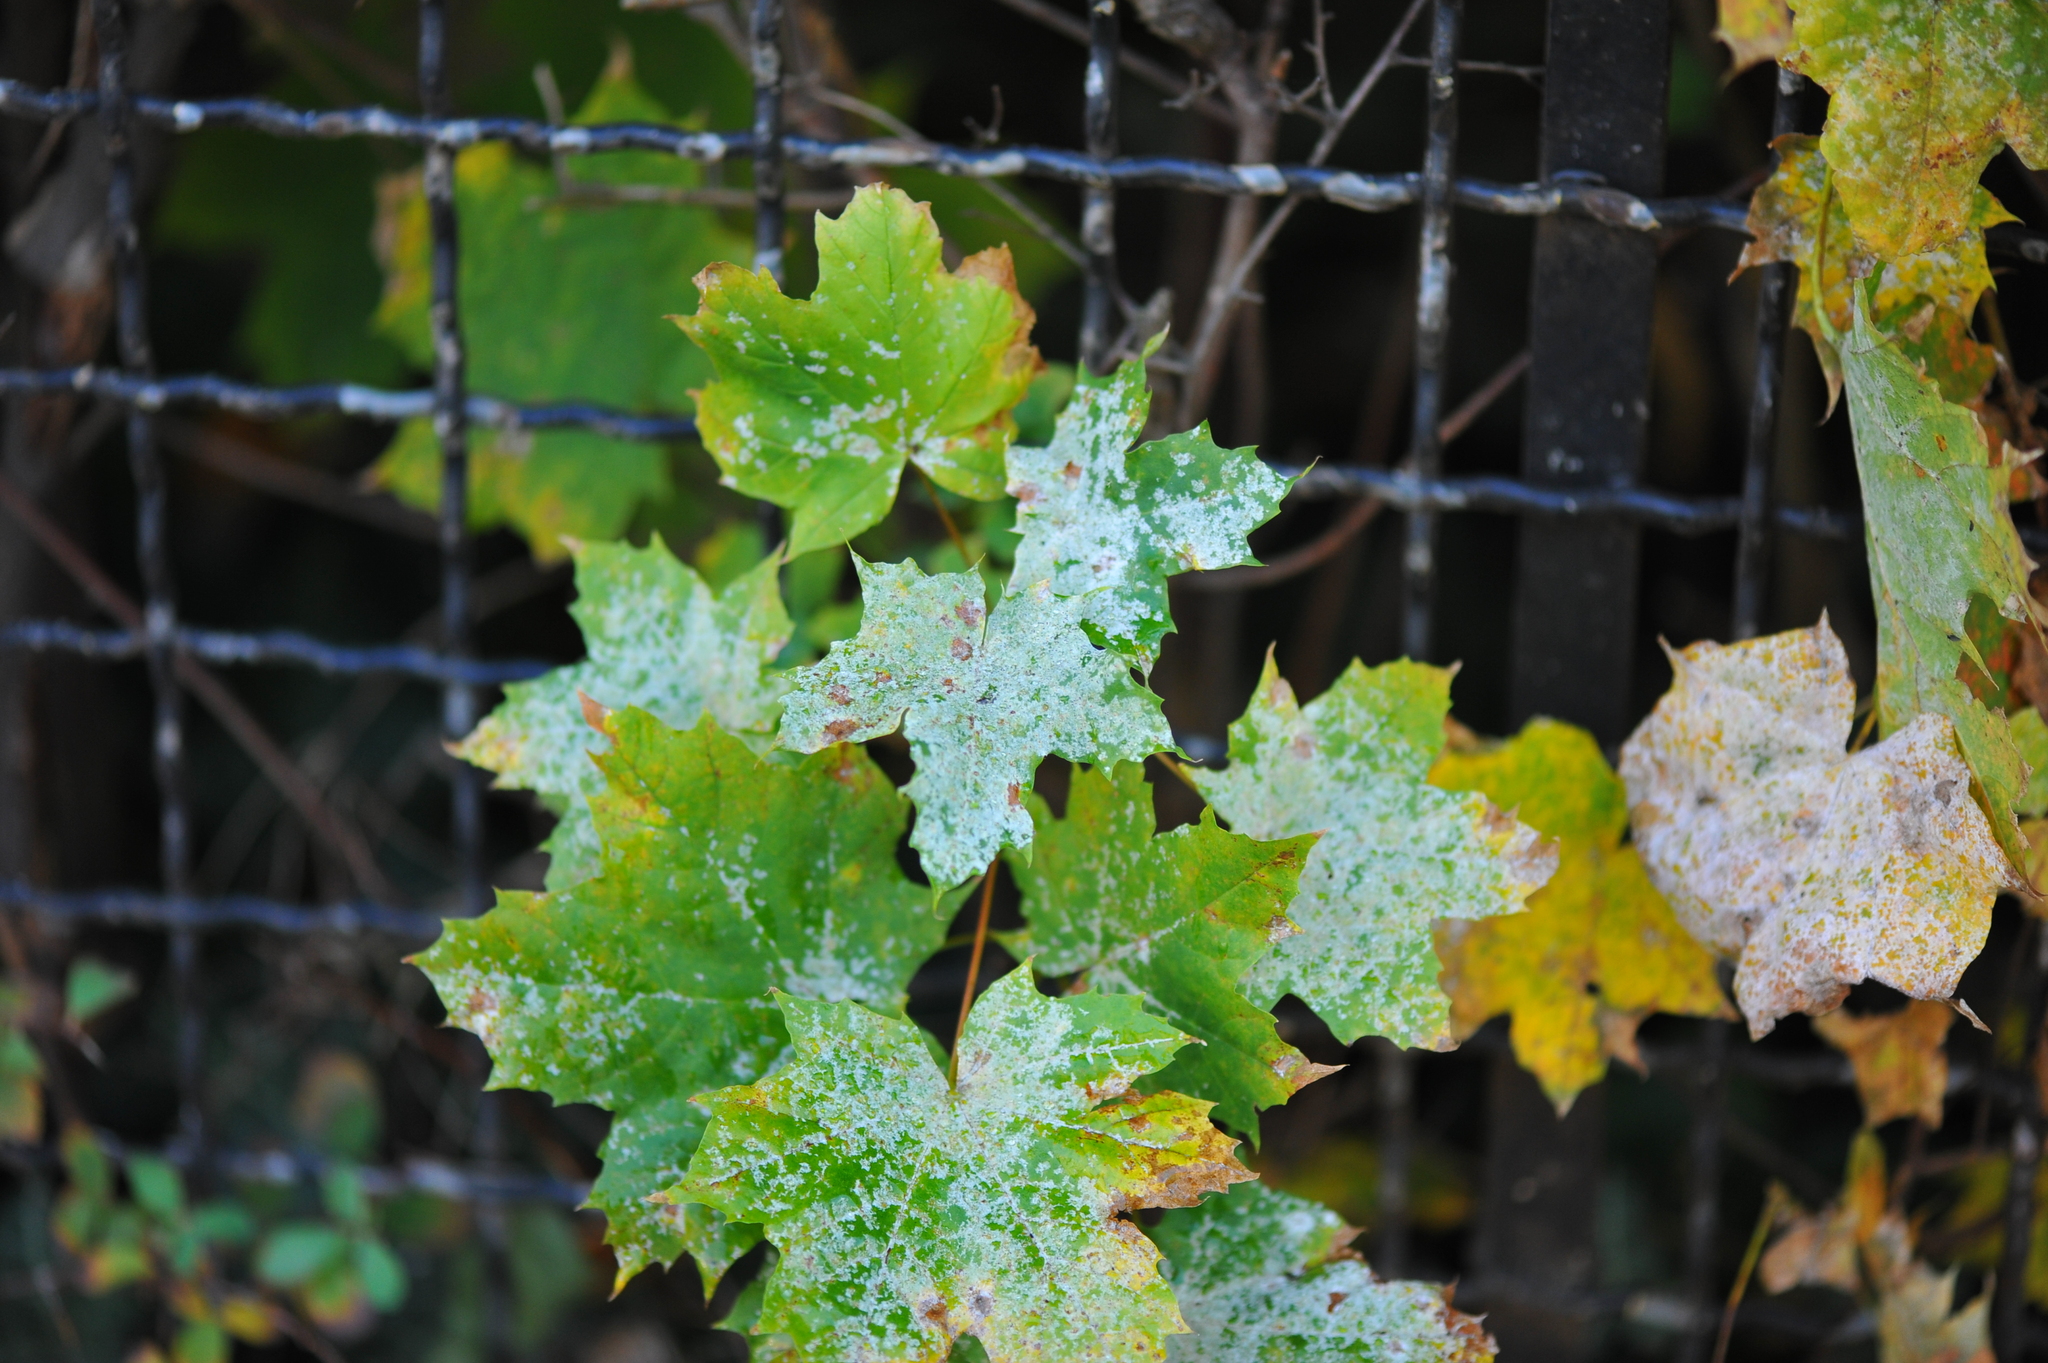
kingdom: Plantae
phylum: Tracheophyta
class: Magnoliopsida
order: Sapindales
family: Sapindaceae
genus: Acer
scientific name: Acer platanoides
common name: Norway maple
